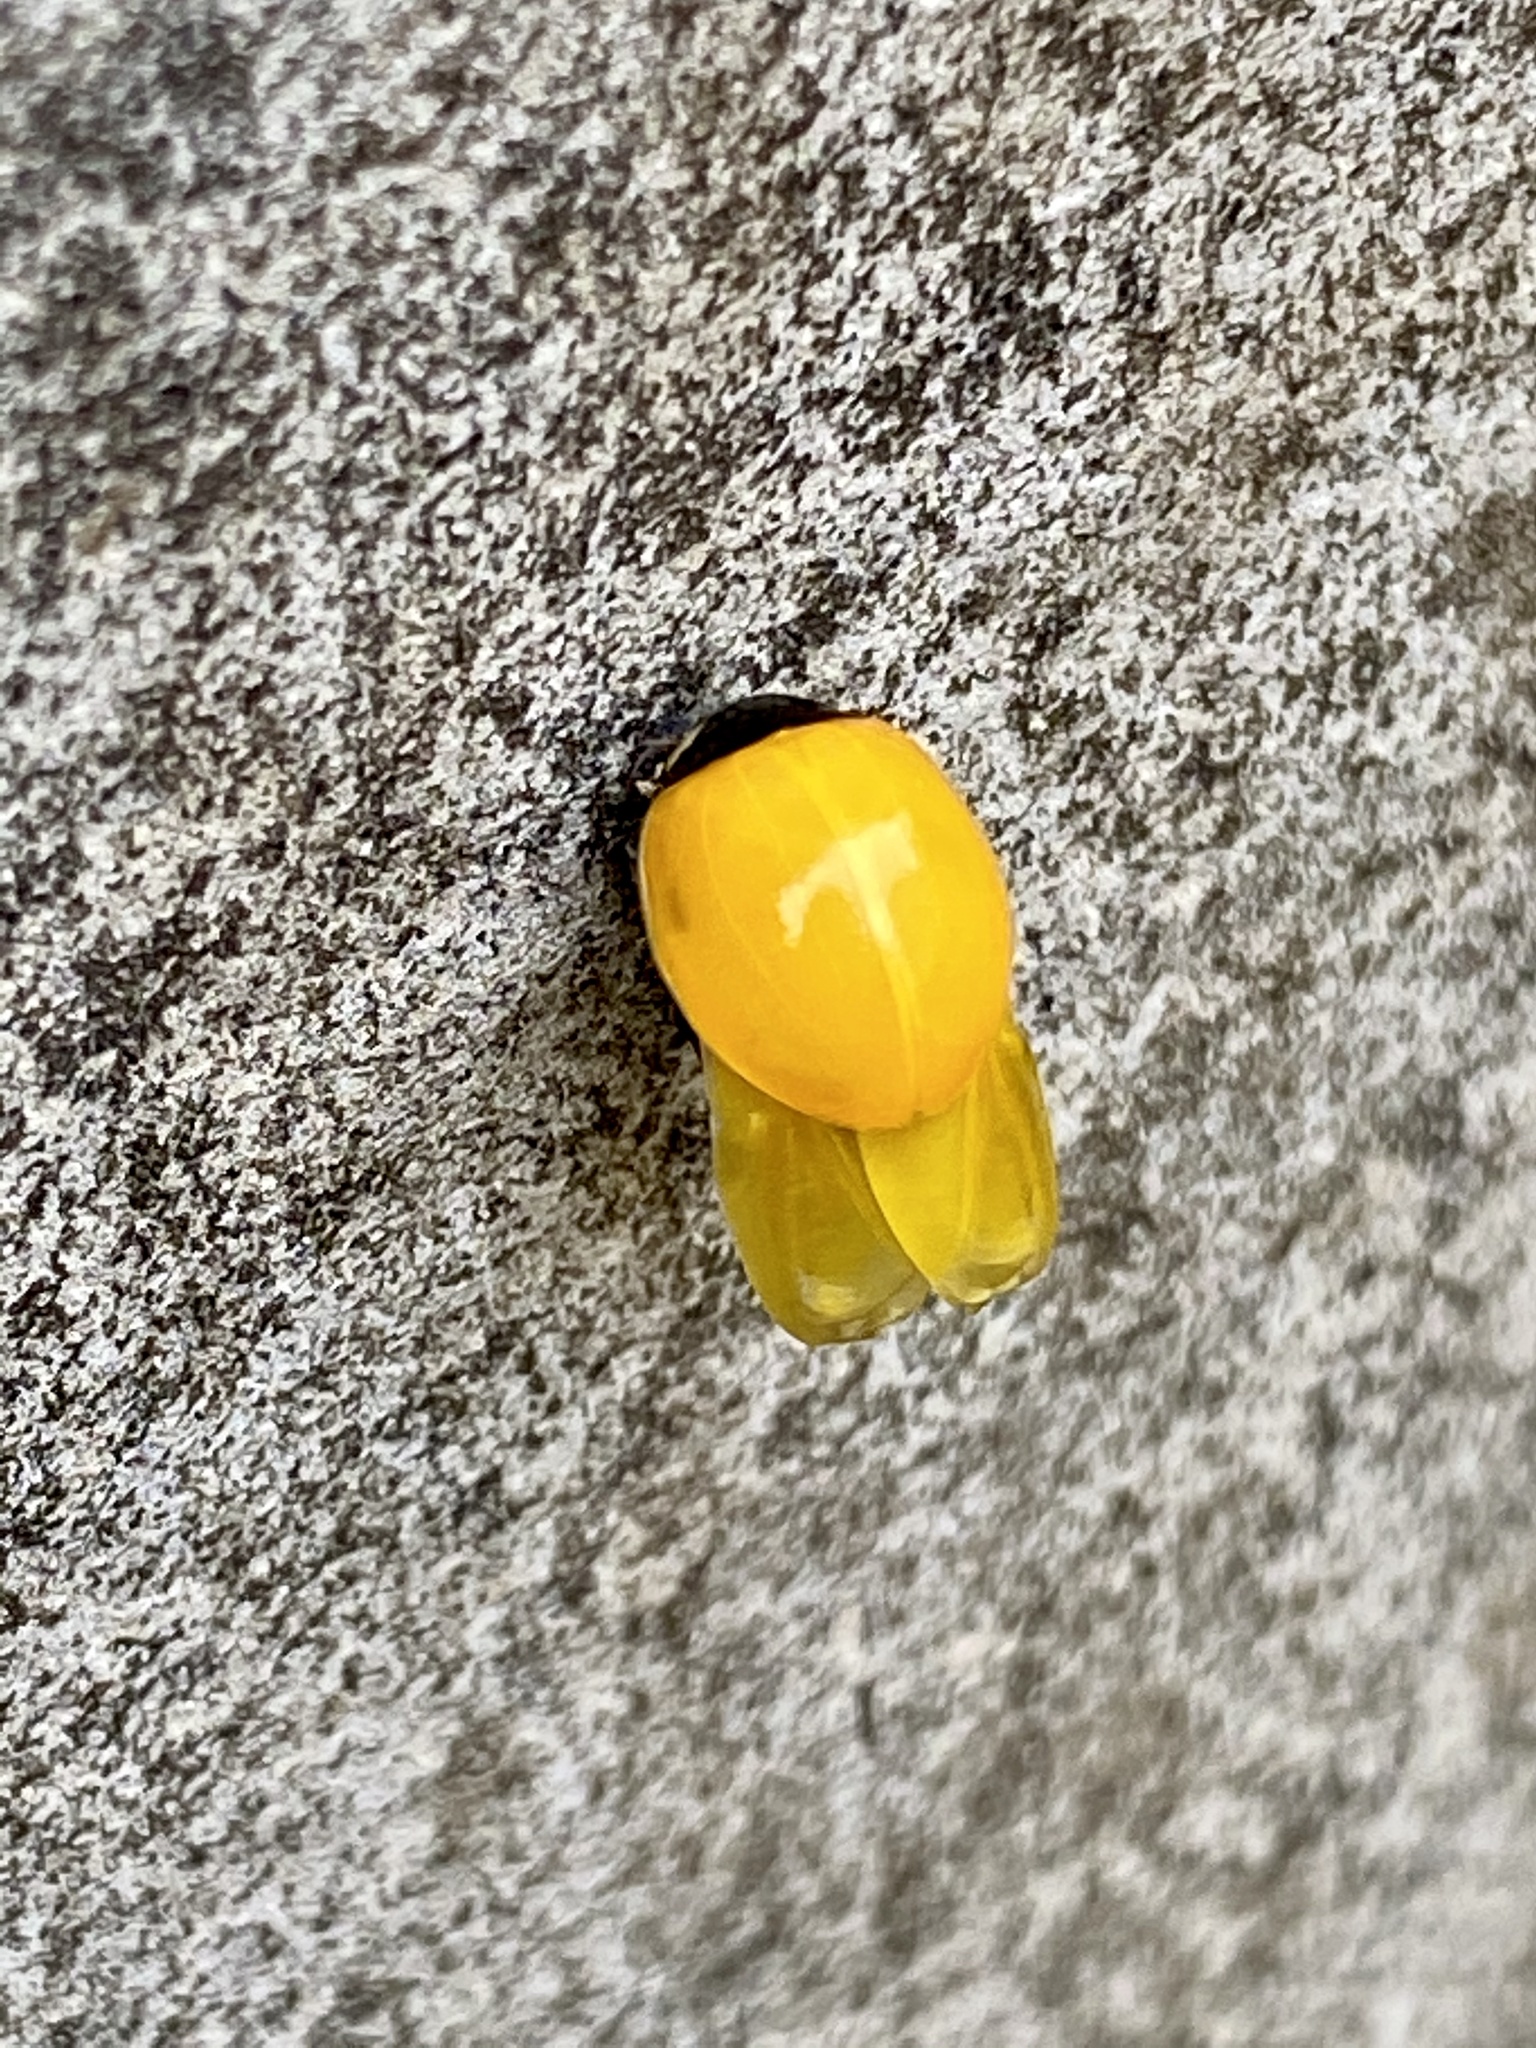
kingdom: Animalia
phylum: Arthropoda
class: Insecta
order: Coleoptera
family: Coccinellidae
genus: Coccinella
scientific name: Coccinella septempunctata
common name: Sevenspotted lady beetle
